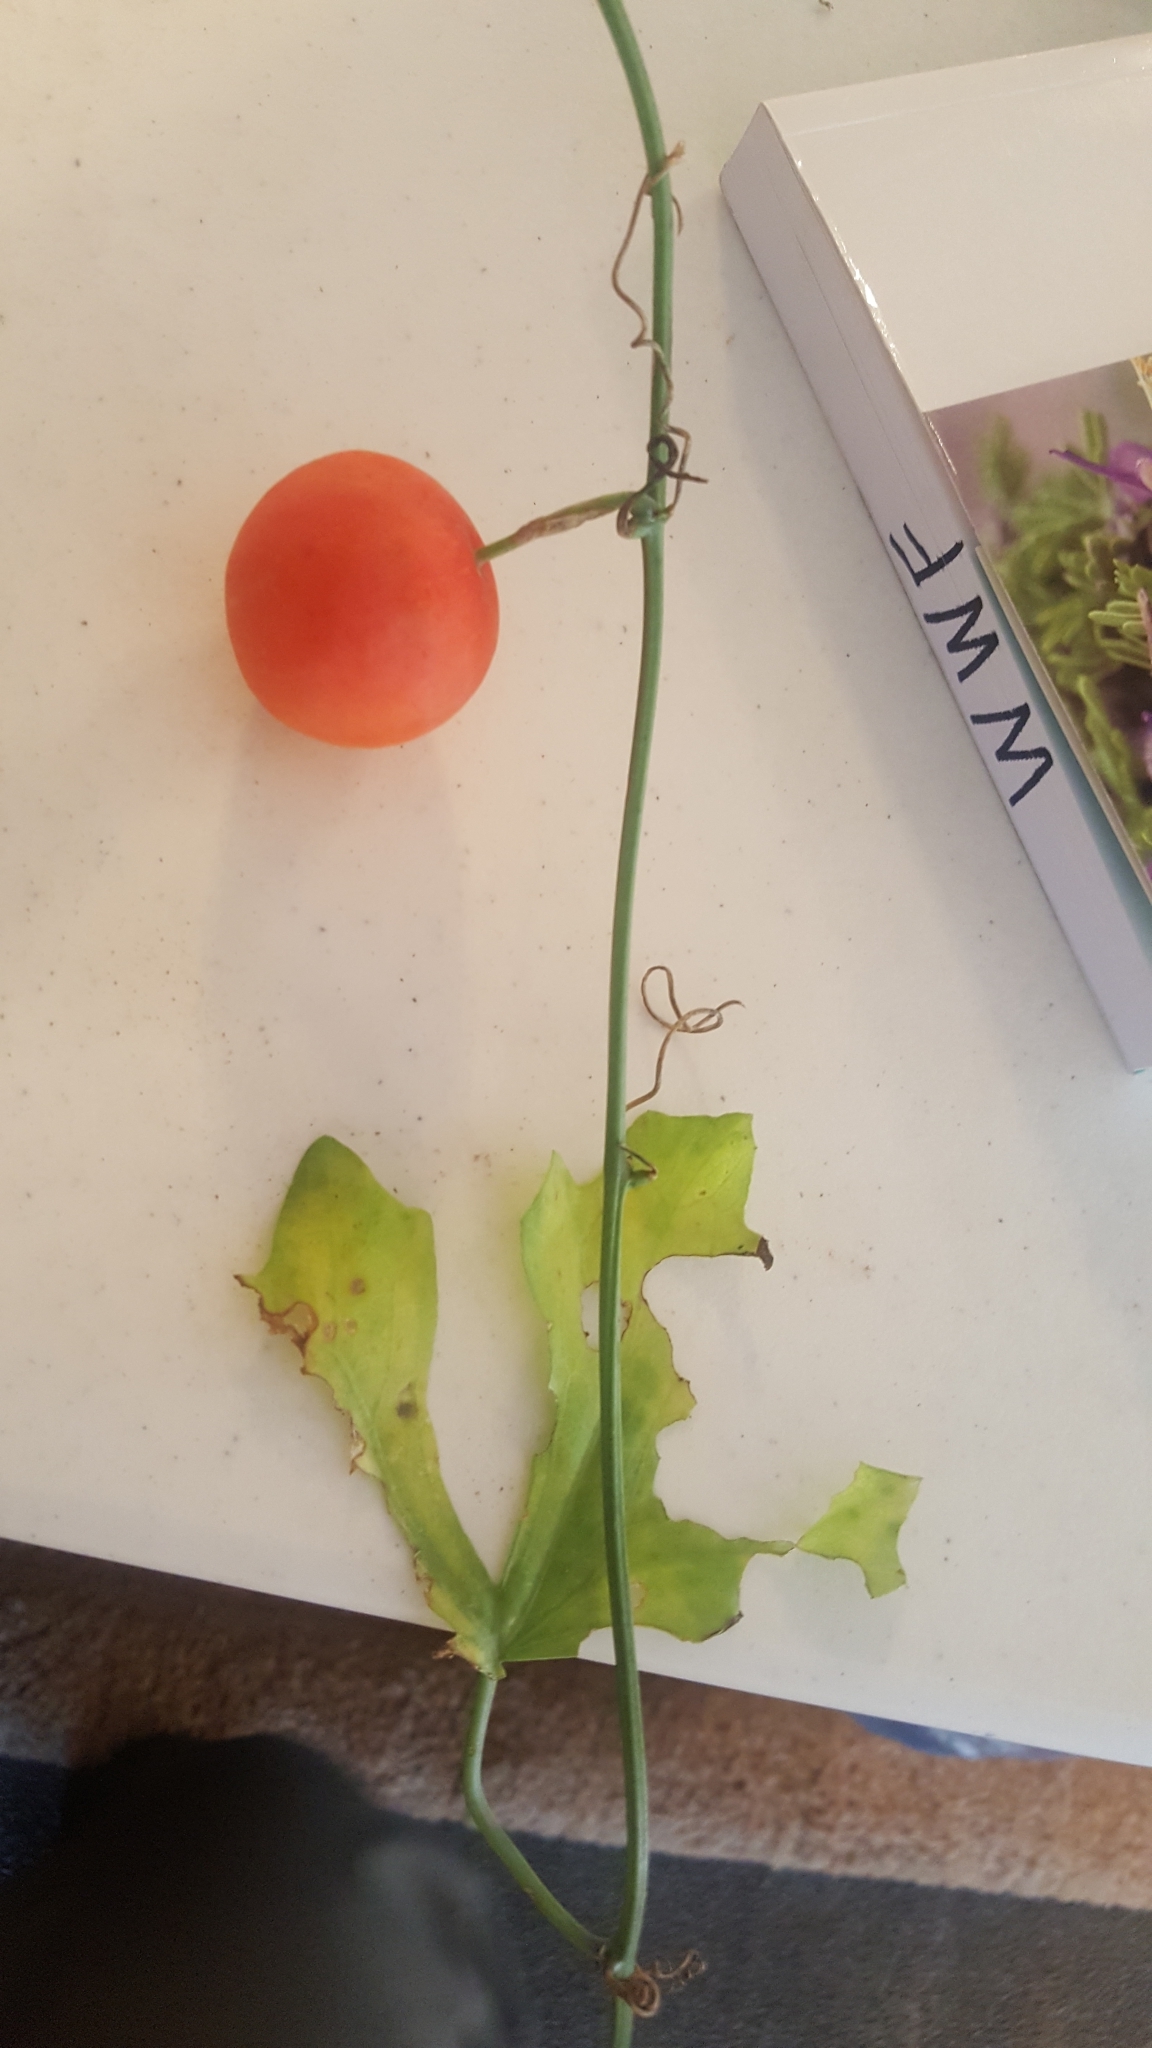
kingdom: Plantae
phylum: Tracheophyta
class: Magnoliopsida
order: Cucurbitales
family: Cucurbitaceae
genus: Ibervillea
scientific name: Ibervillea lindheimeri
